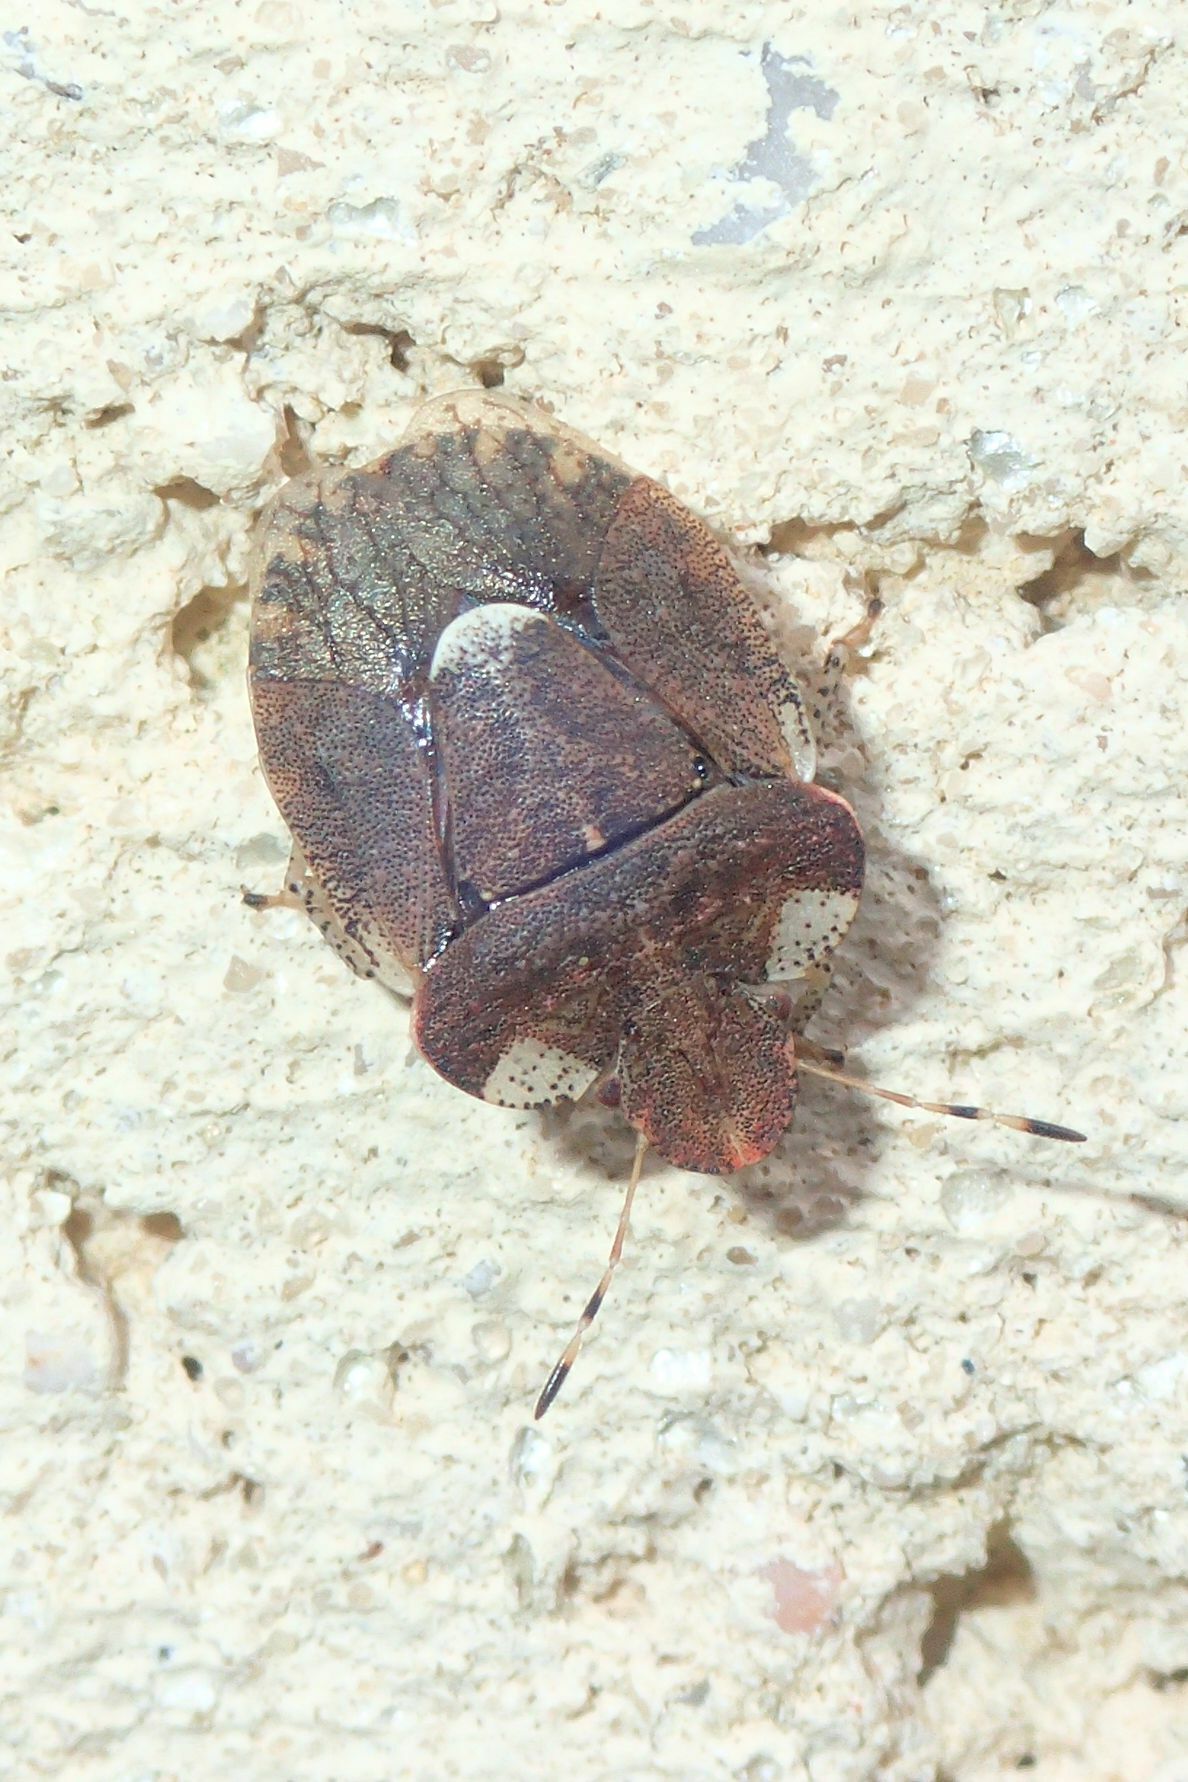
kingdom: Animalia
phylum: Arthropoda
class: Insecta
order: Hemiptera
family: Pentatomidae
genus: Dyroderes
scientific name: Dyroderes umbraculatus
